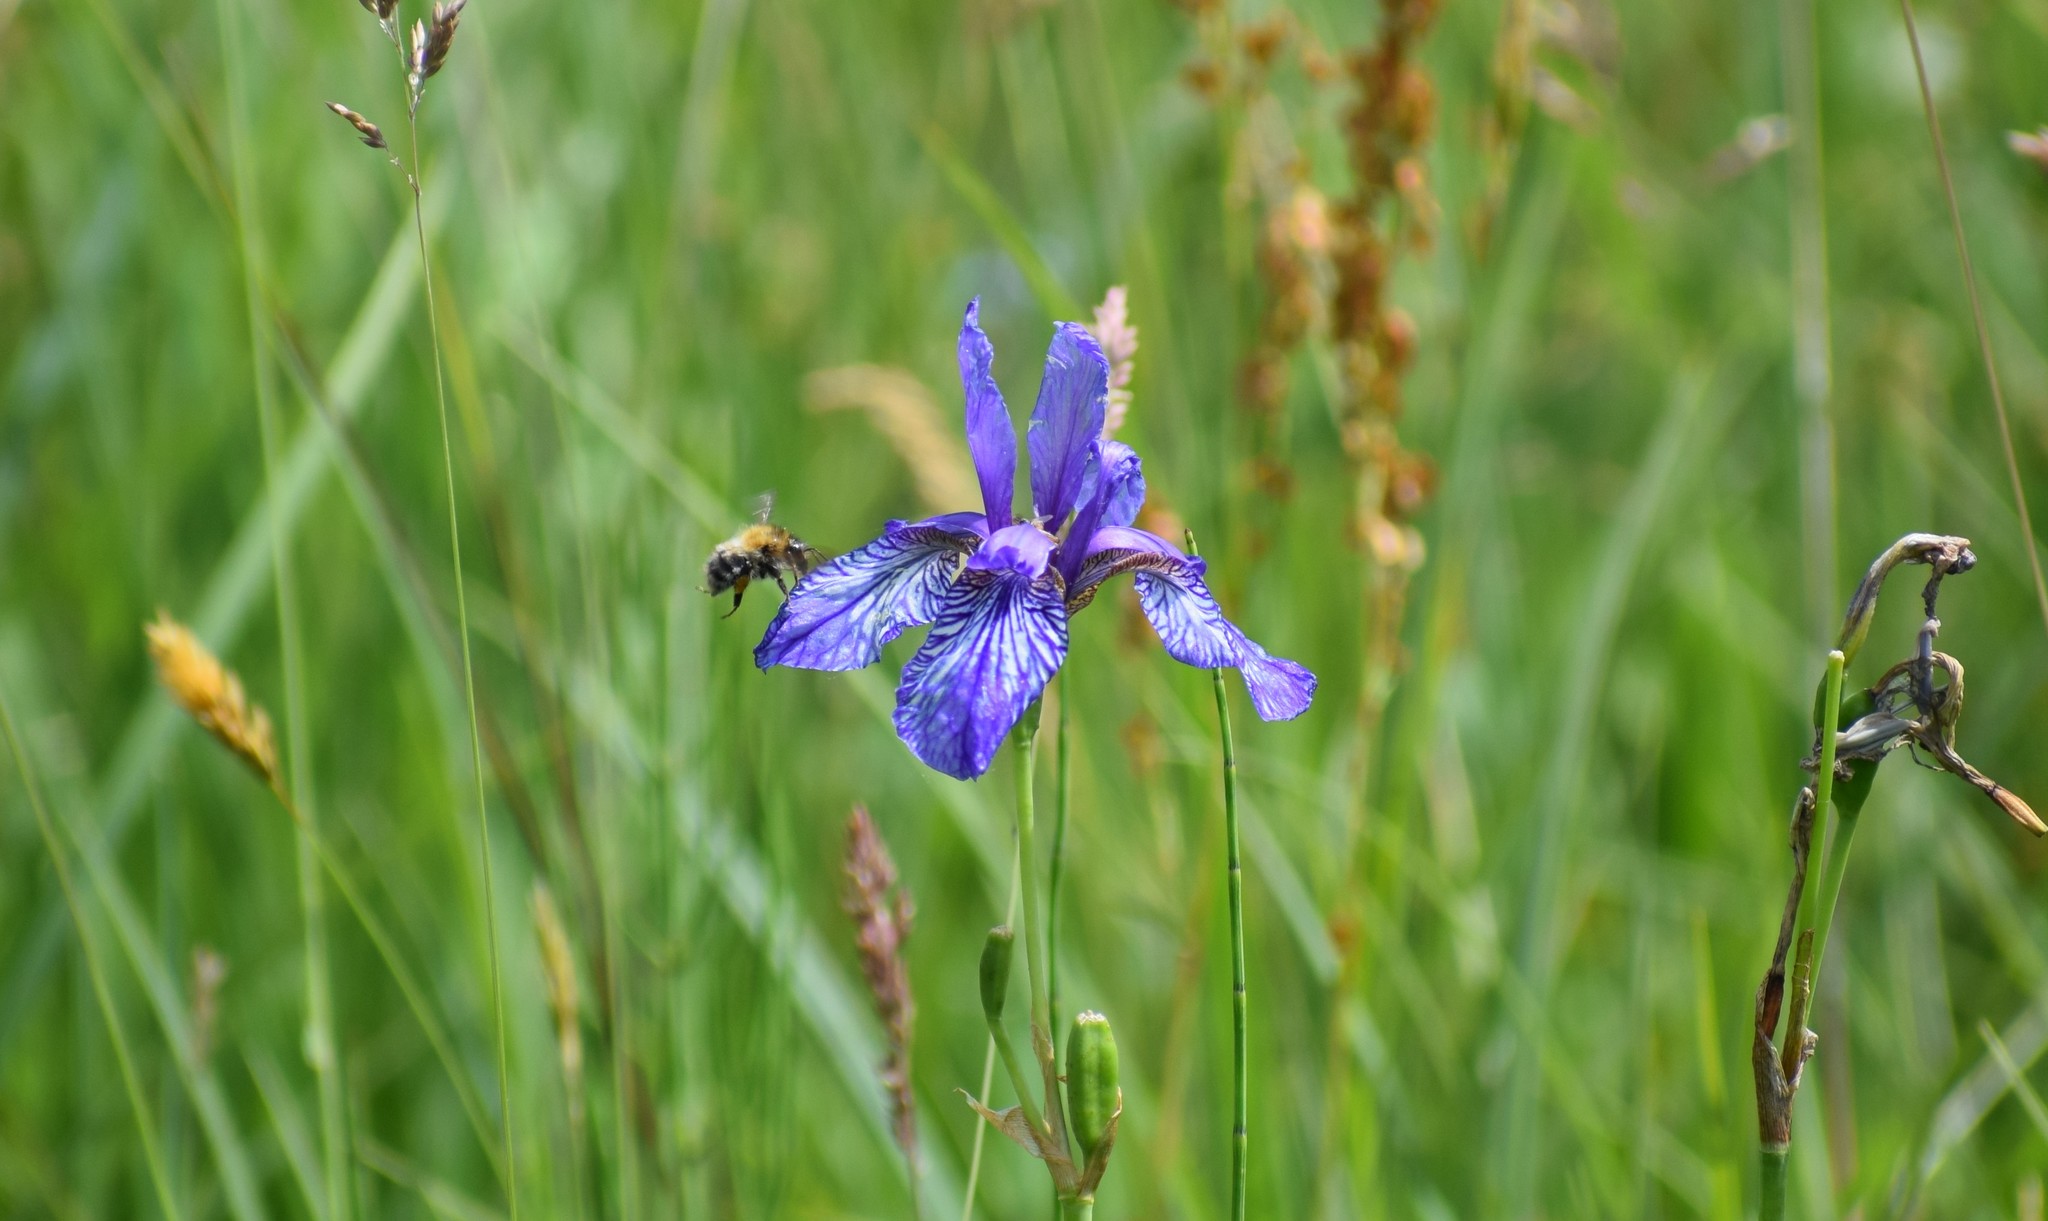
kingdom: Plantae
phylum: Tracheophyta
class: Liliopsida
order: Asparagales
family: Iridaceae
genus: Iris
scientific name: Iris sibirica
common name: Siberian iris
